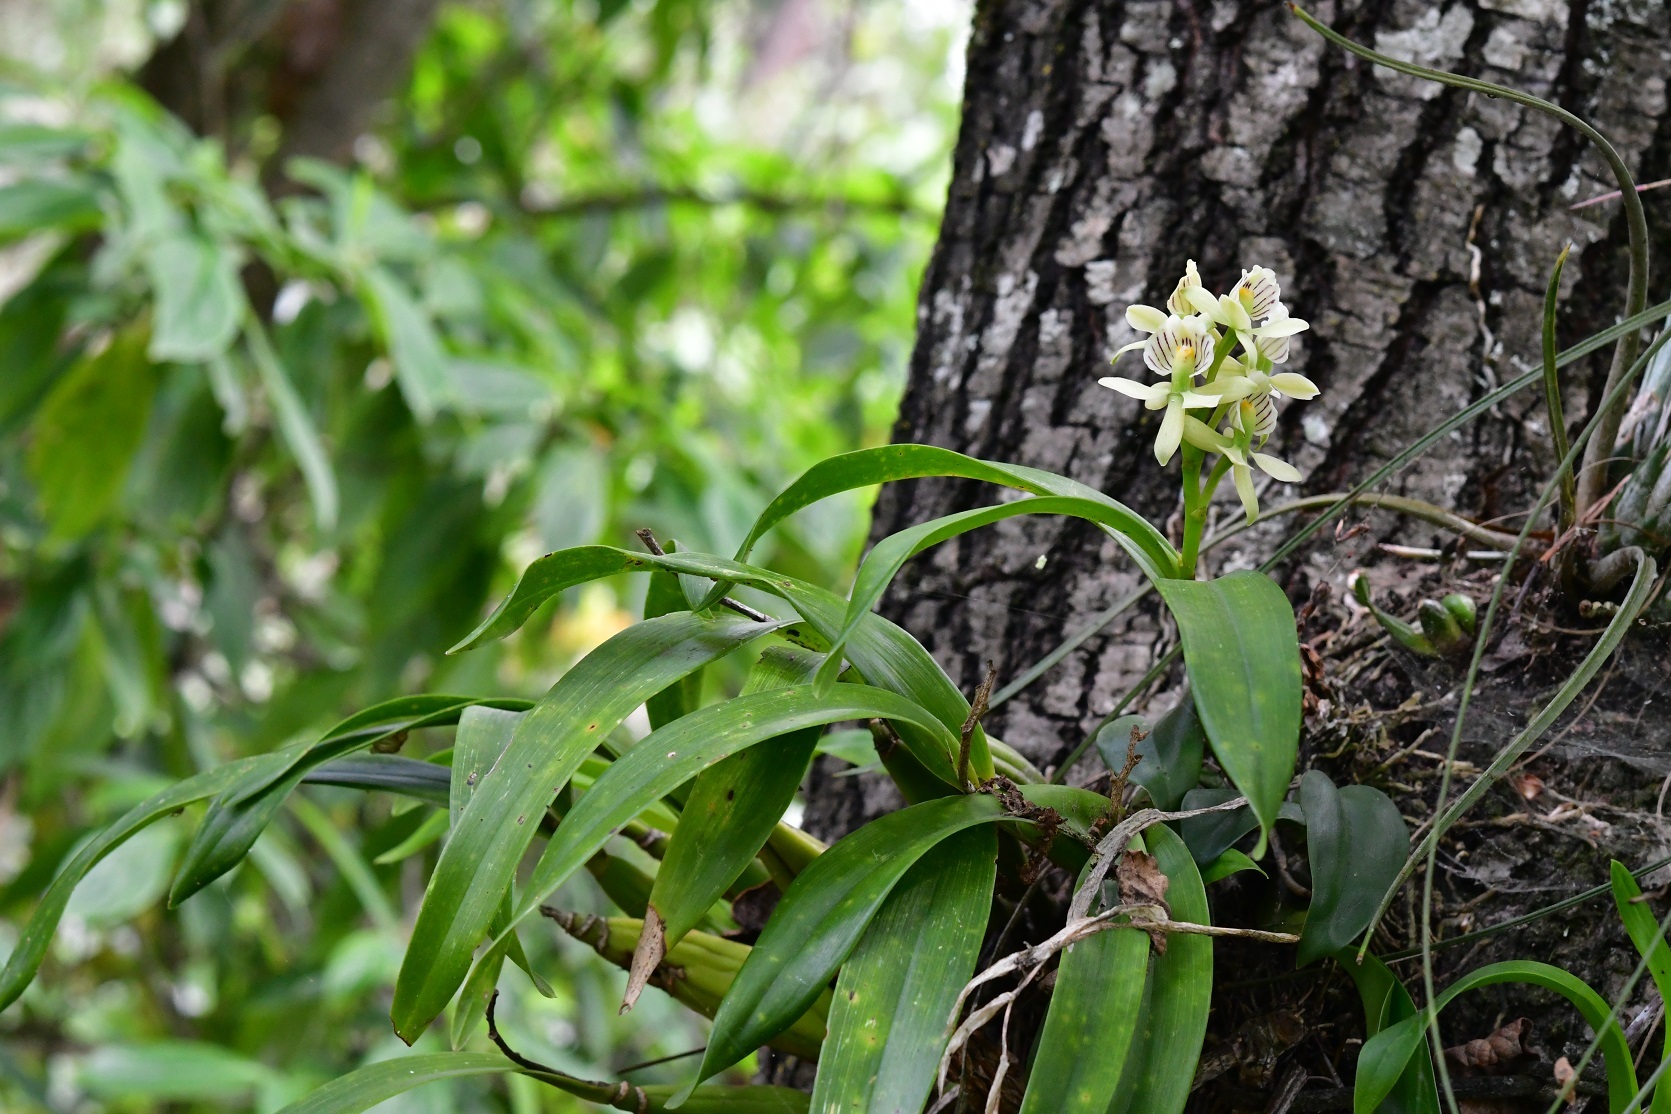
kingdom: Plantae
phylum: Tracheophyta
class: Liliopsida
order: Asparagales
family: Orchidaceae
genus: Prosthechea
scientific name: Prosthechea radiata
